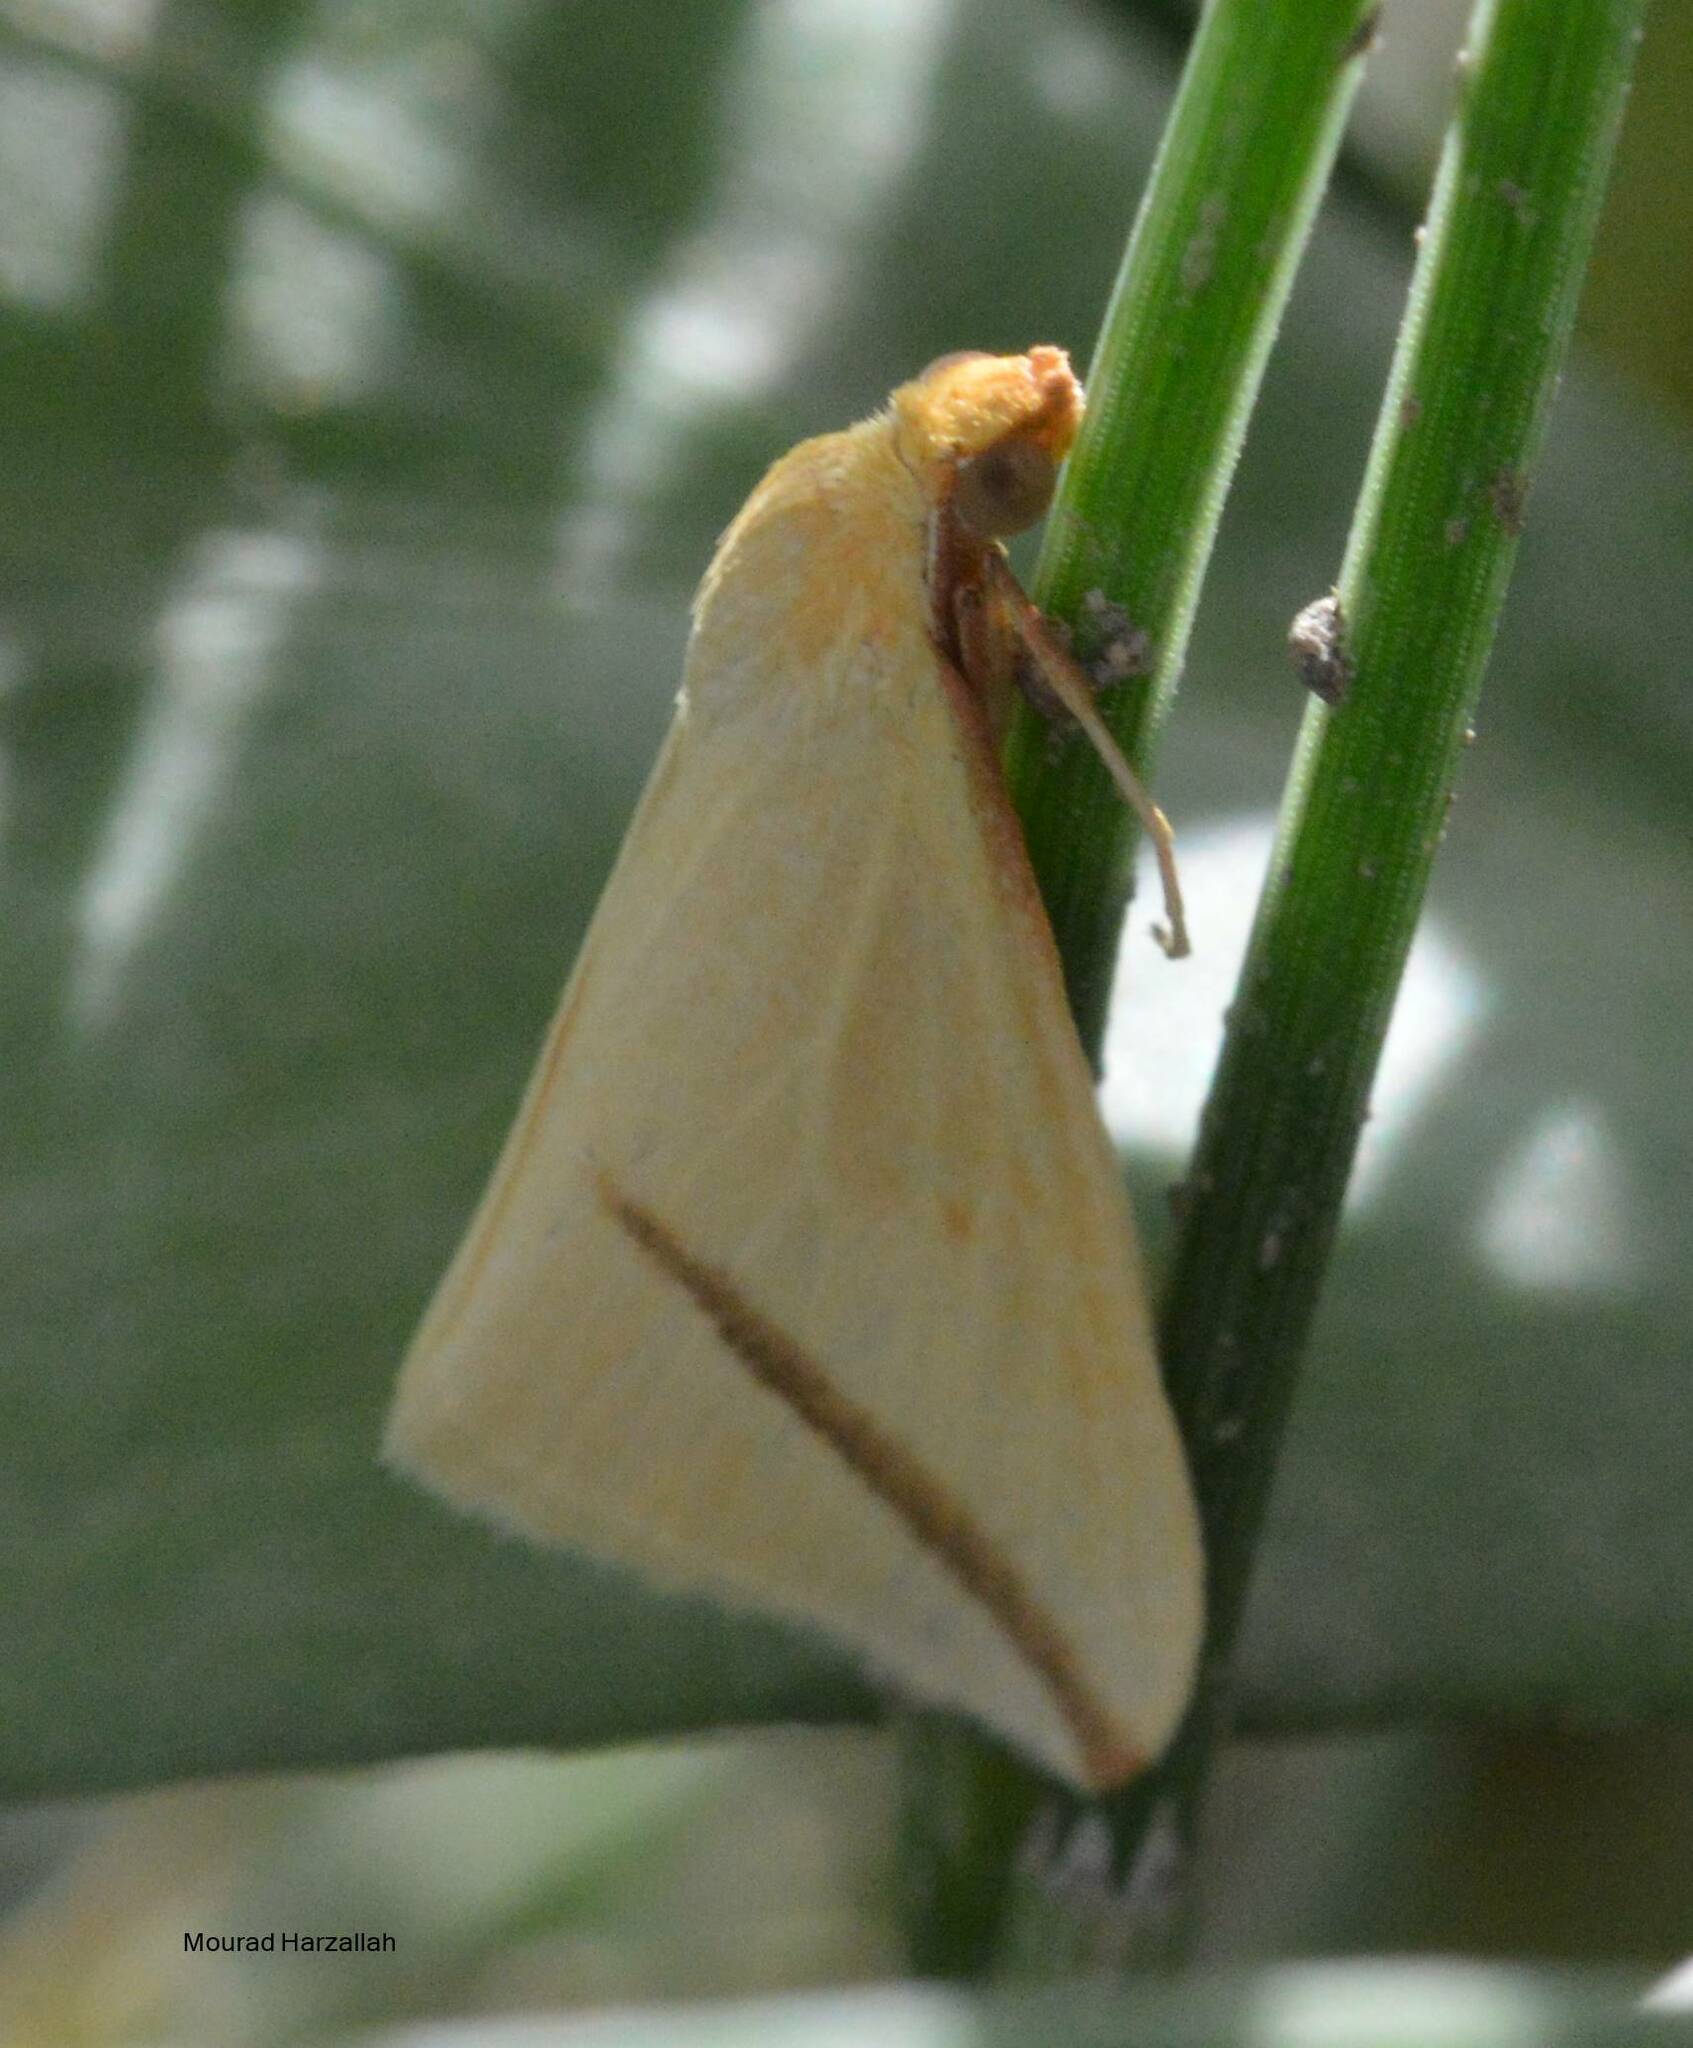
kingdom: Animalia
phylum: Arthropoda
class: Insecta
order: Lepidoptera
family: Geometridae
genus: Rhodometra
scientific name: Rhodometra sacraria
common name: Vestal
